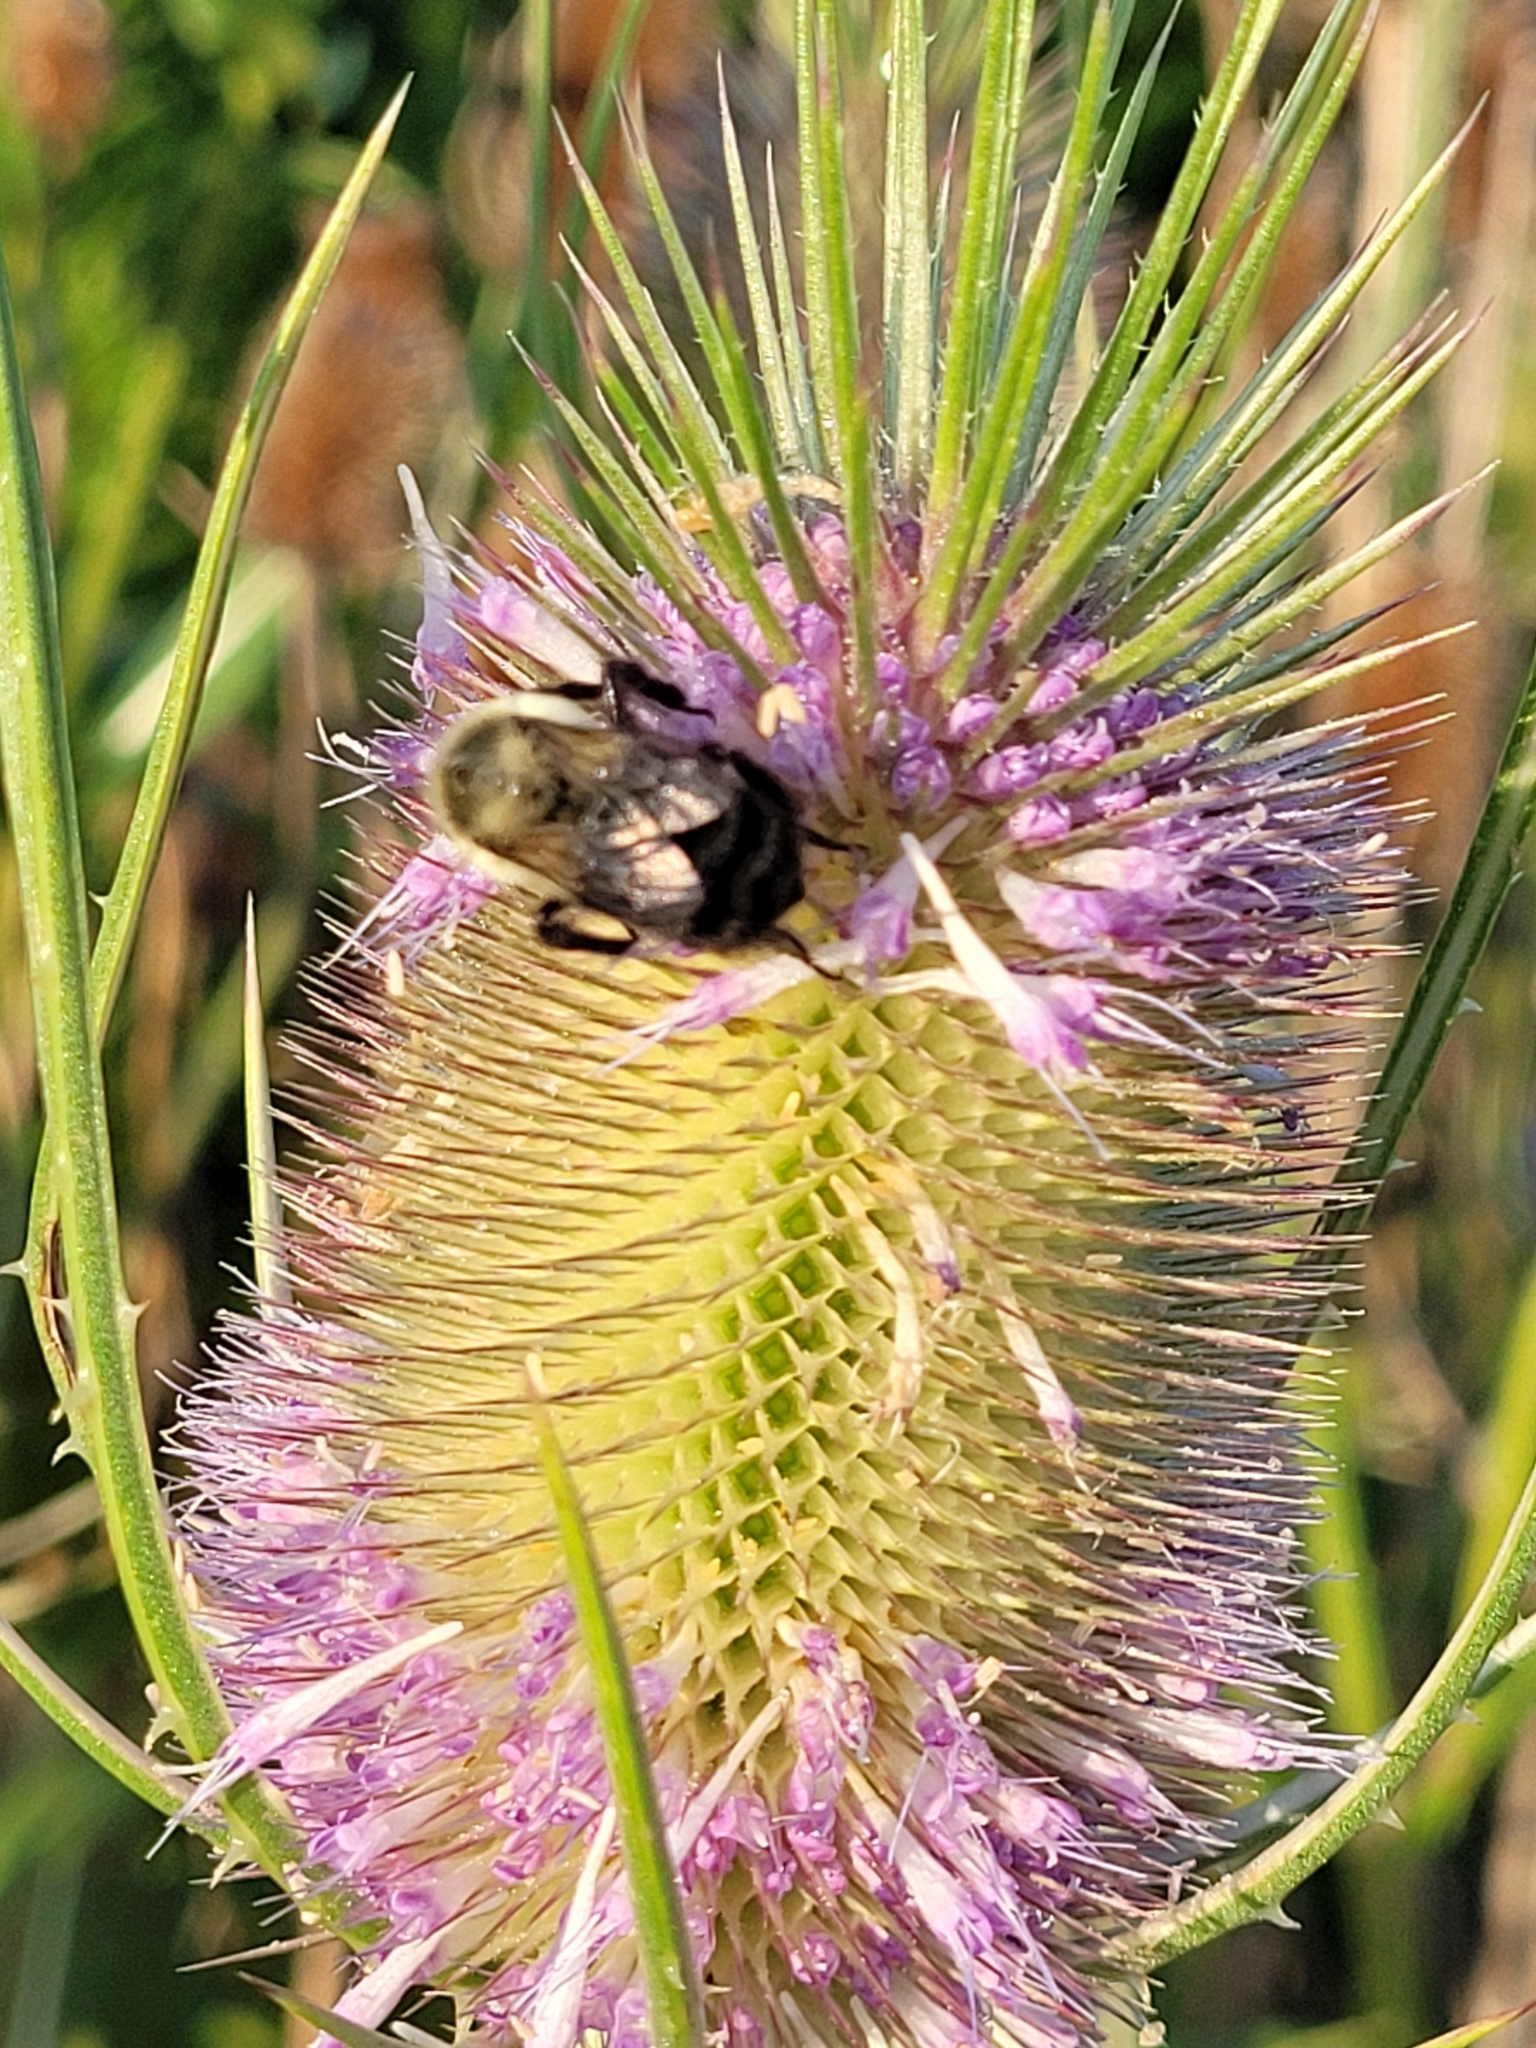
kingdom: Animalia
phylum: Arthropoda
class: Insecta
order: Hymenoptera
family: Apidae
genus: Bombus
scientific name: Bombus impatiens
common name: Common eastern bumble bee
